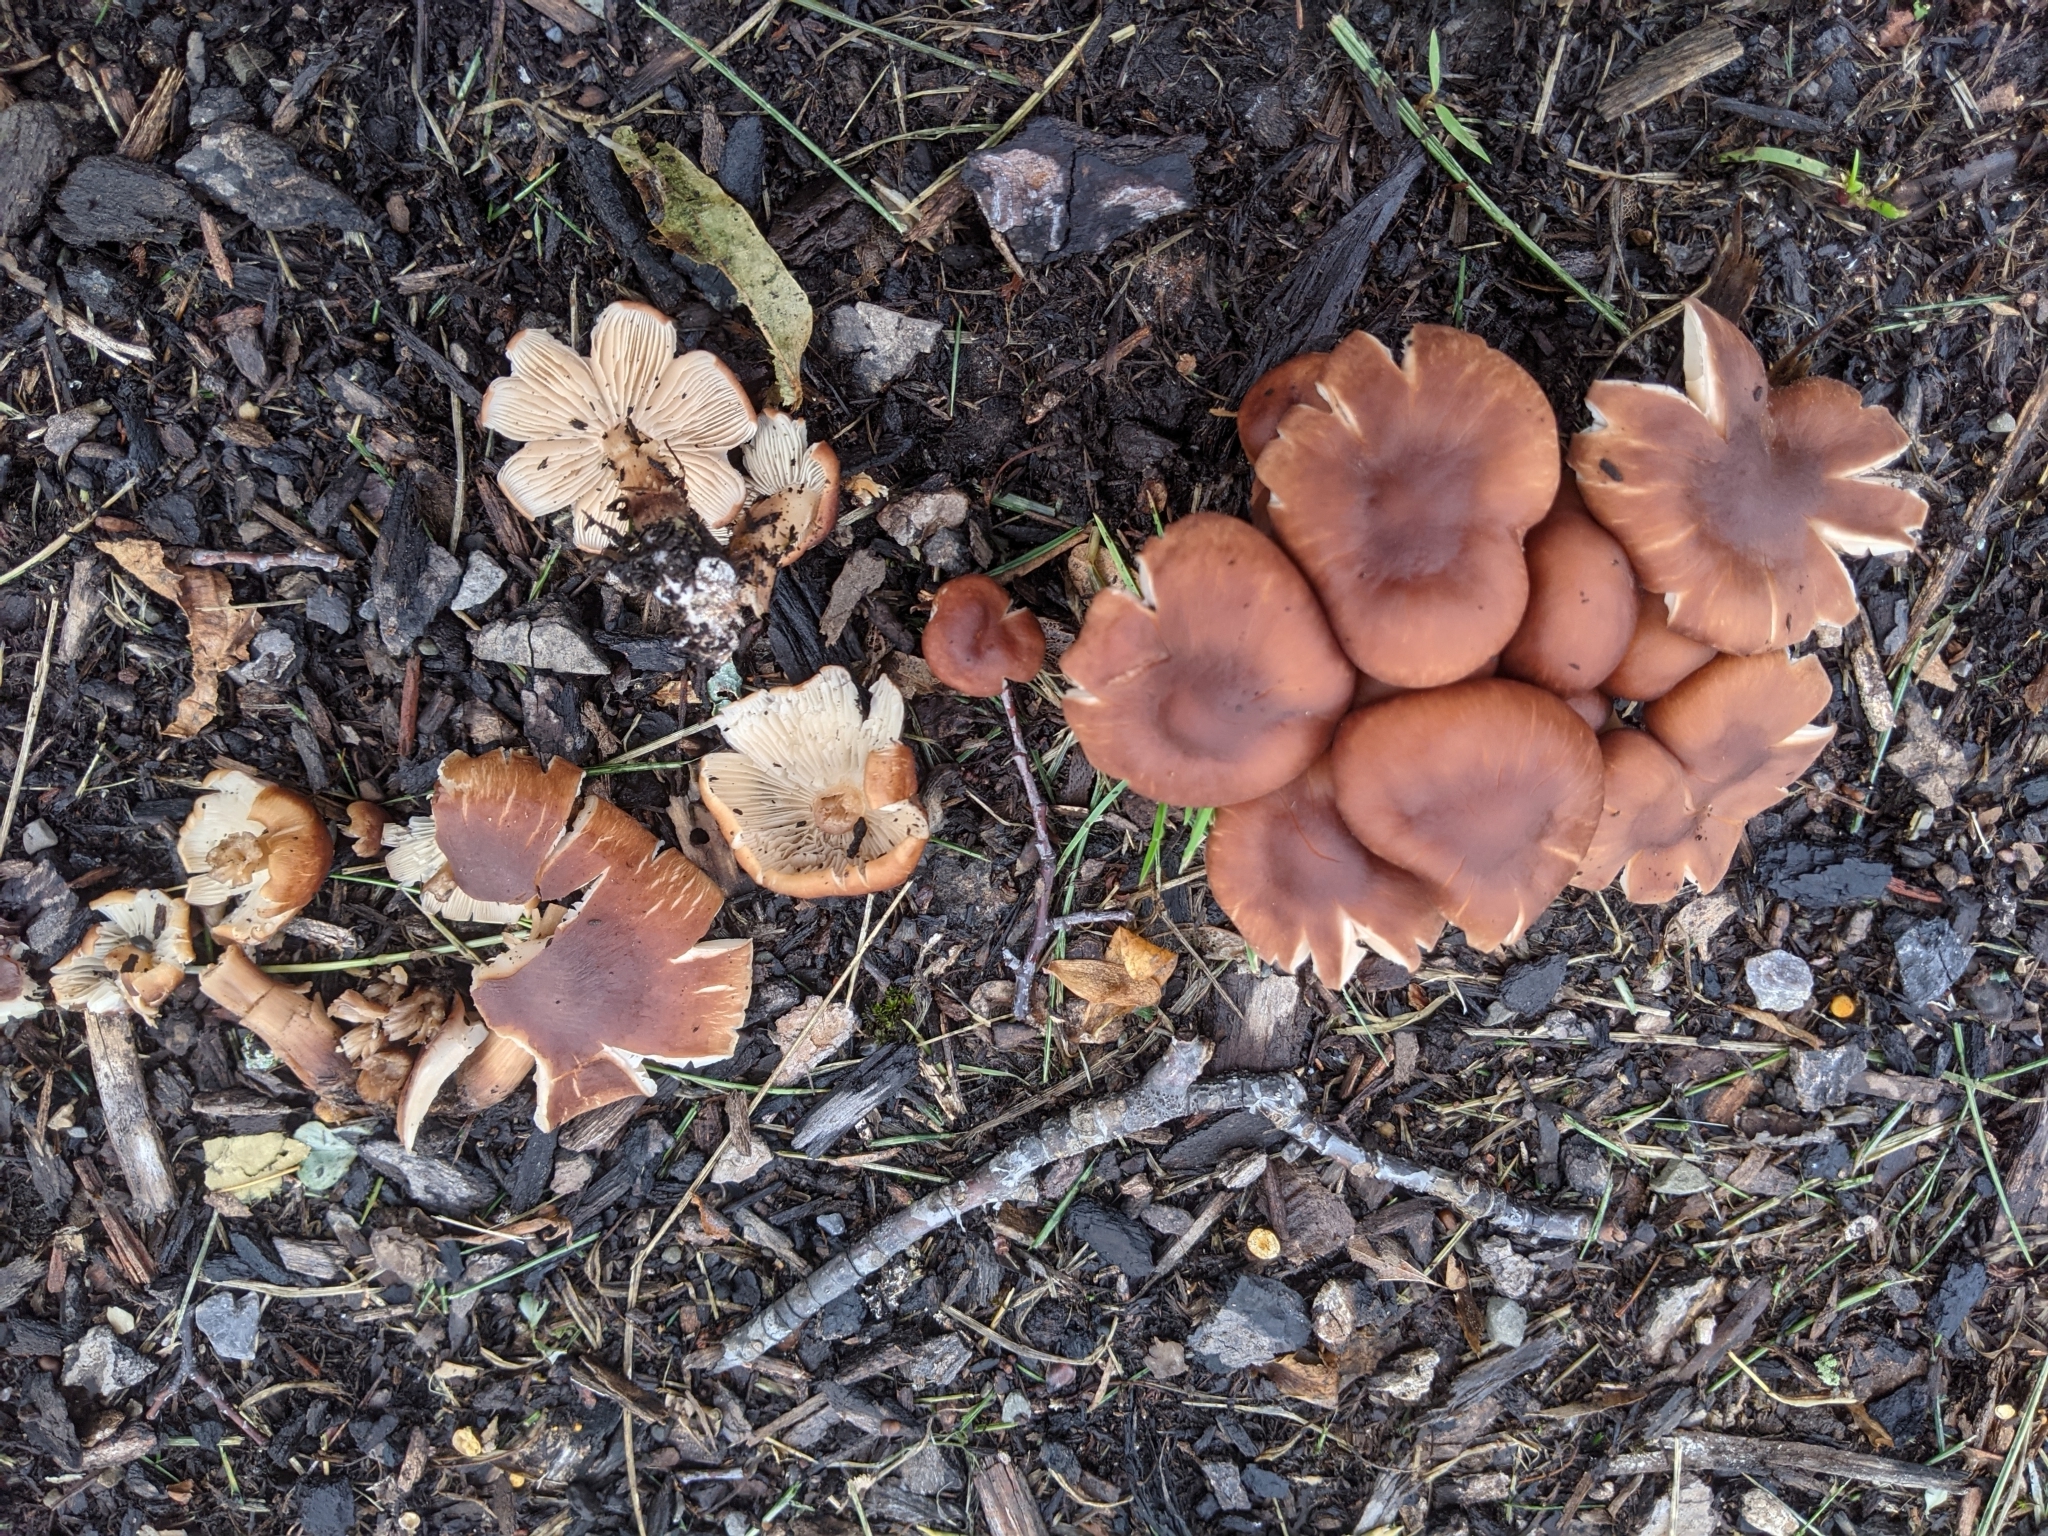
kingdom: Fungi
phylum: Basidiomycota
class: Agaricomycetes
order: Agaricales
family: Omphalotaceae
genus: Collybiopsis
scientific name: Collybiopsis luxurians
